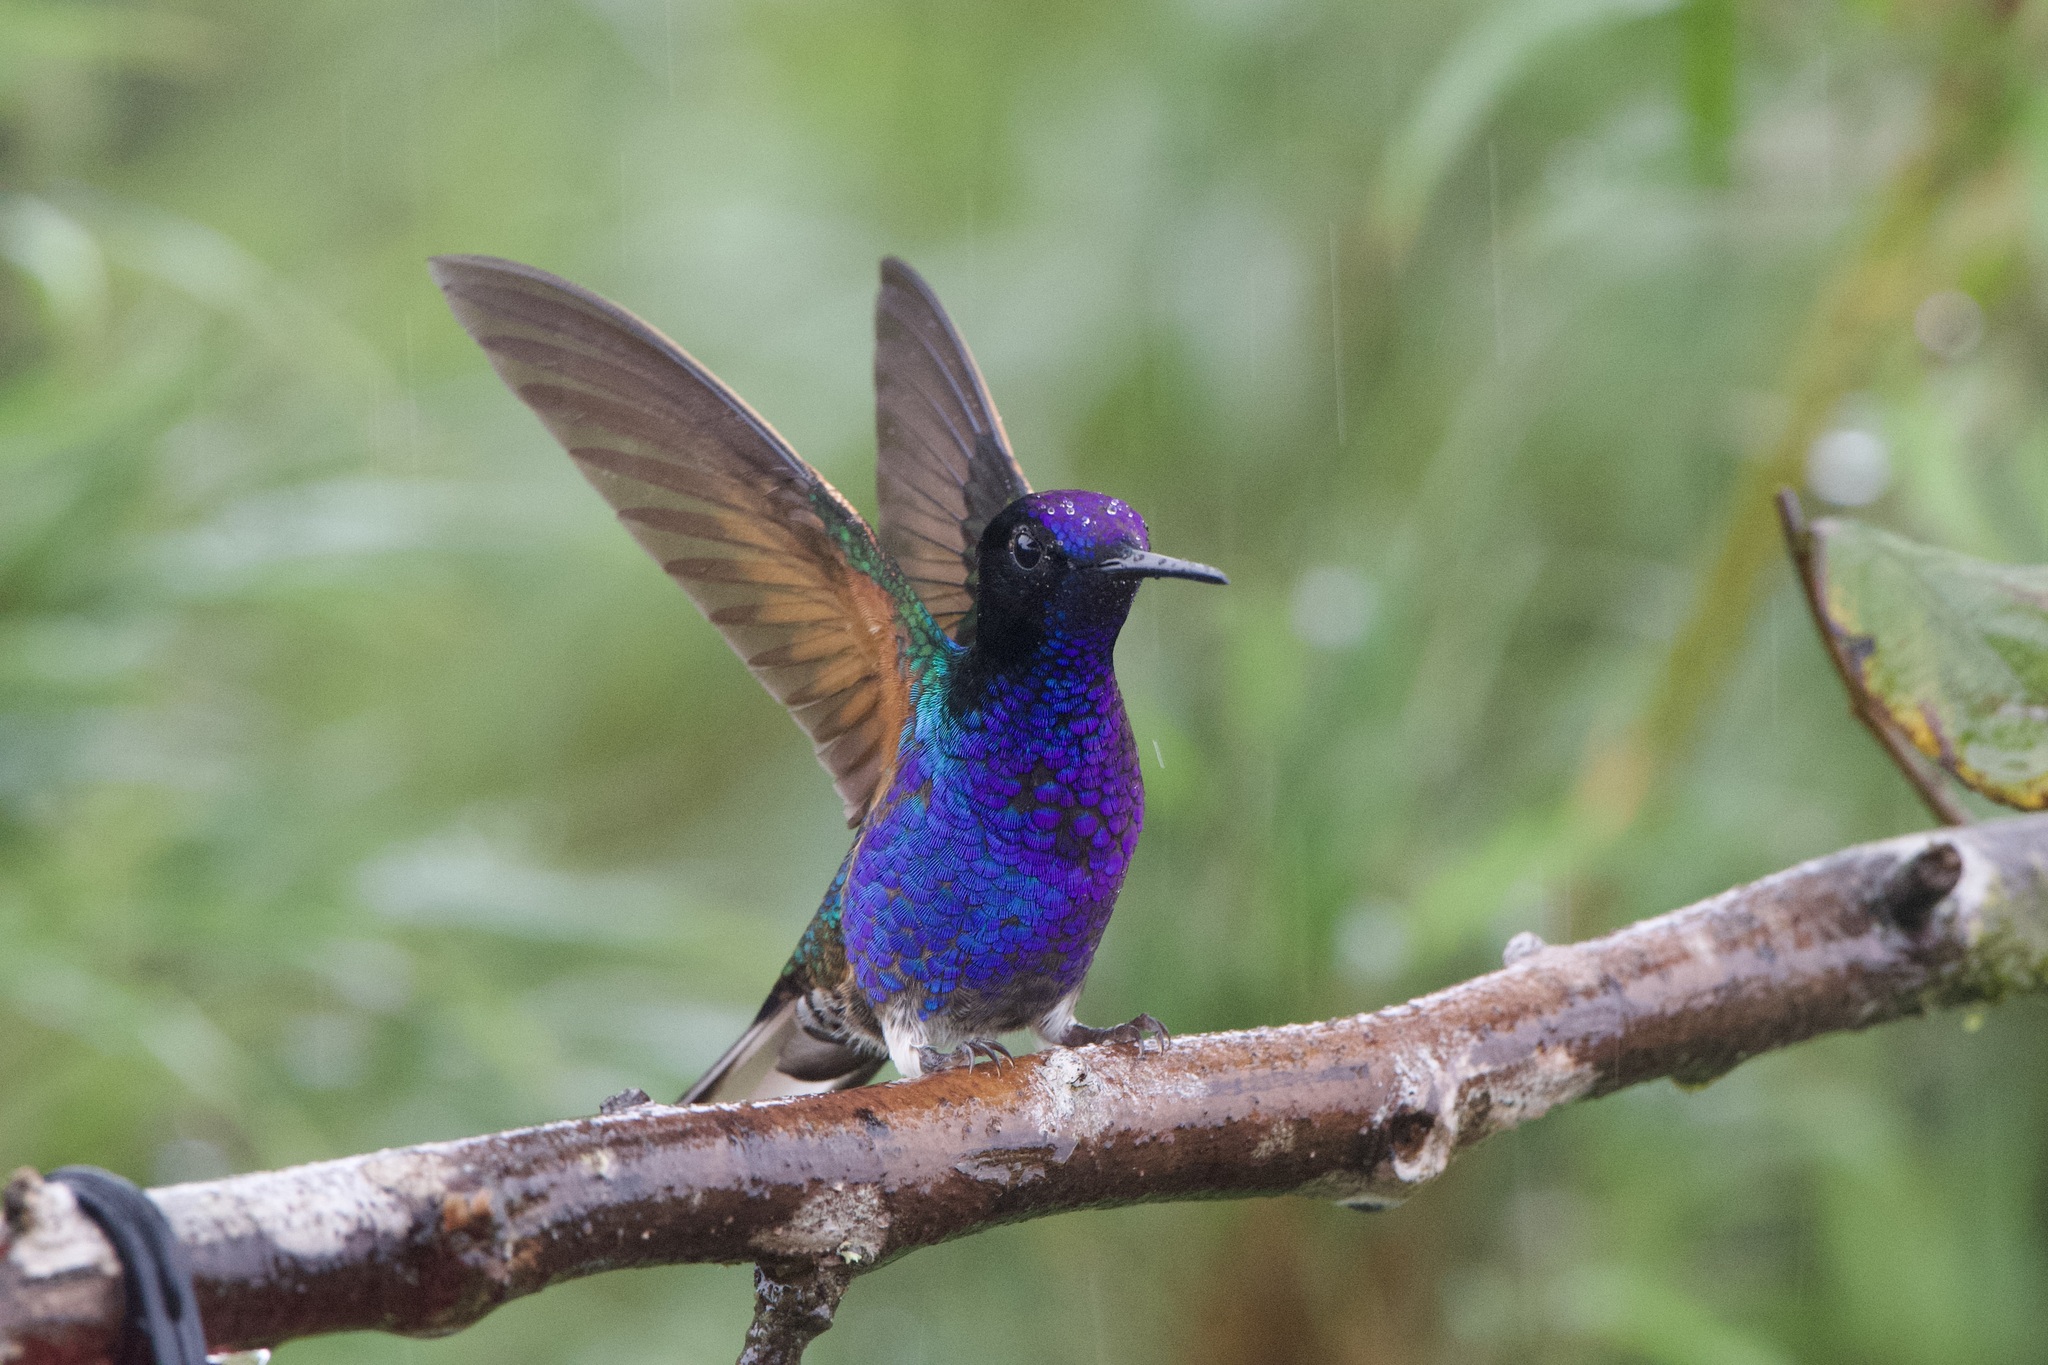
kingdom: Animalia
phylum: Chordata
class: Aves
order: Apodiformes
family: Trochilidae
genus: Boissonneaua
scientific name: Boissonneaua jardini
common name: Velvet-purple coronet
